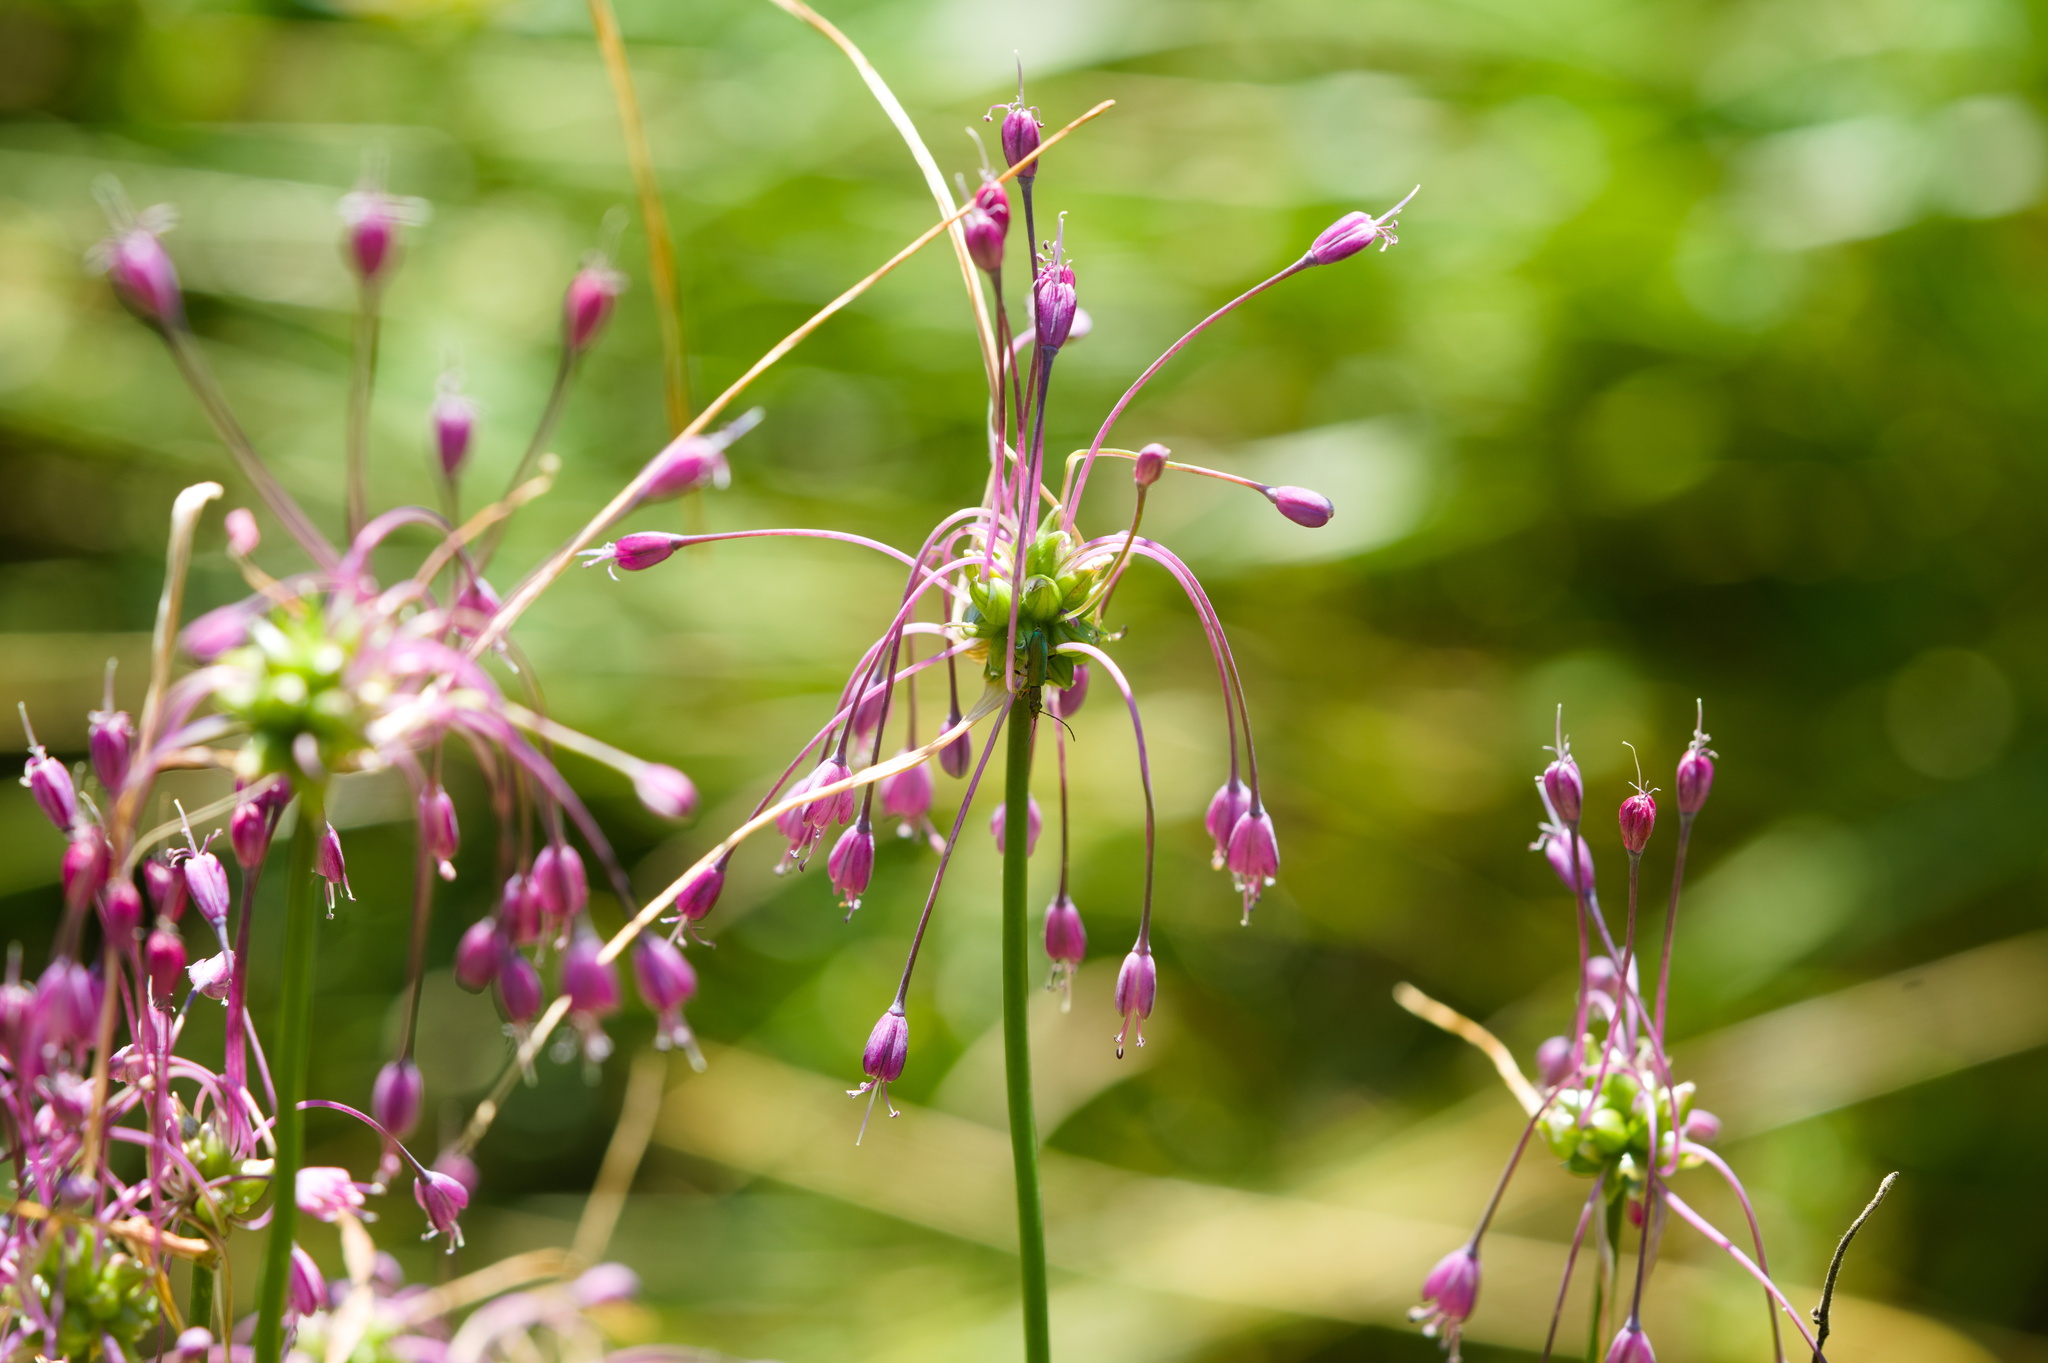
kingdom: Plantae
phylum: Tracheophyta
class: Liliopsida
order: Asparagales
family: Amaryllidaceae
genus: Allium
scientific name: Allium carinatum
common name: Keeled garlic
